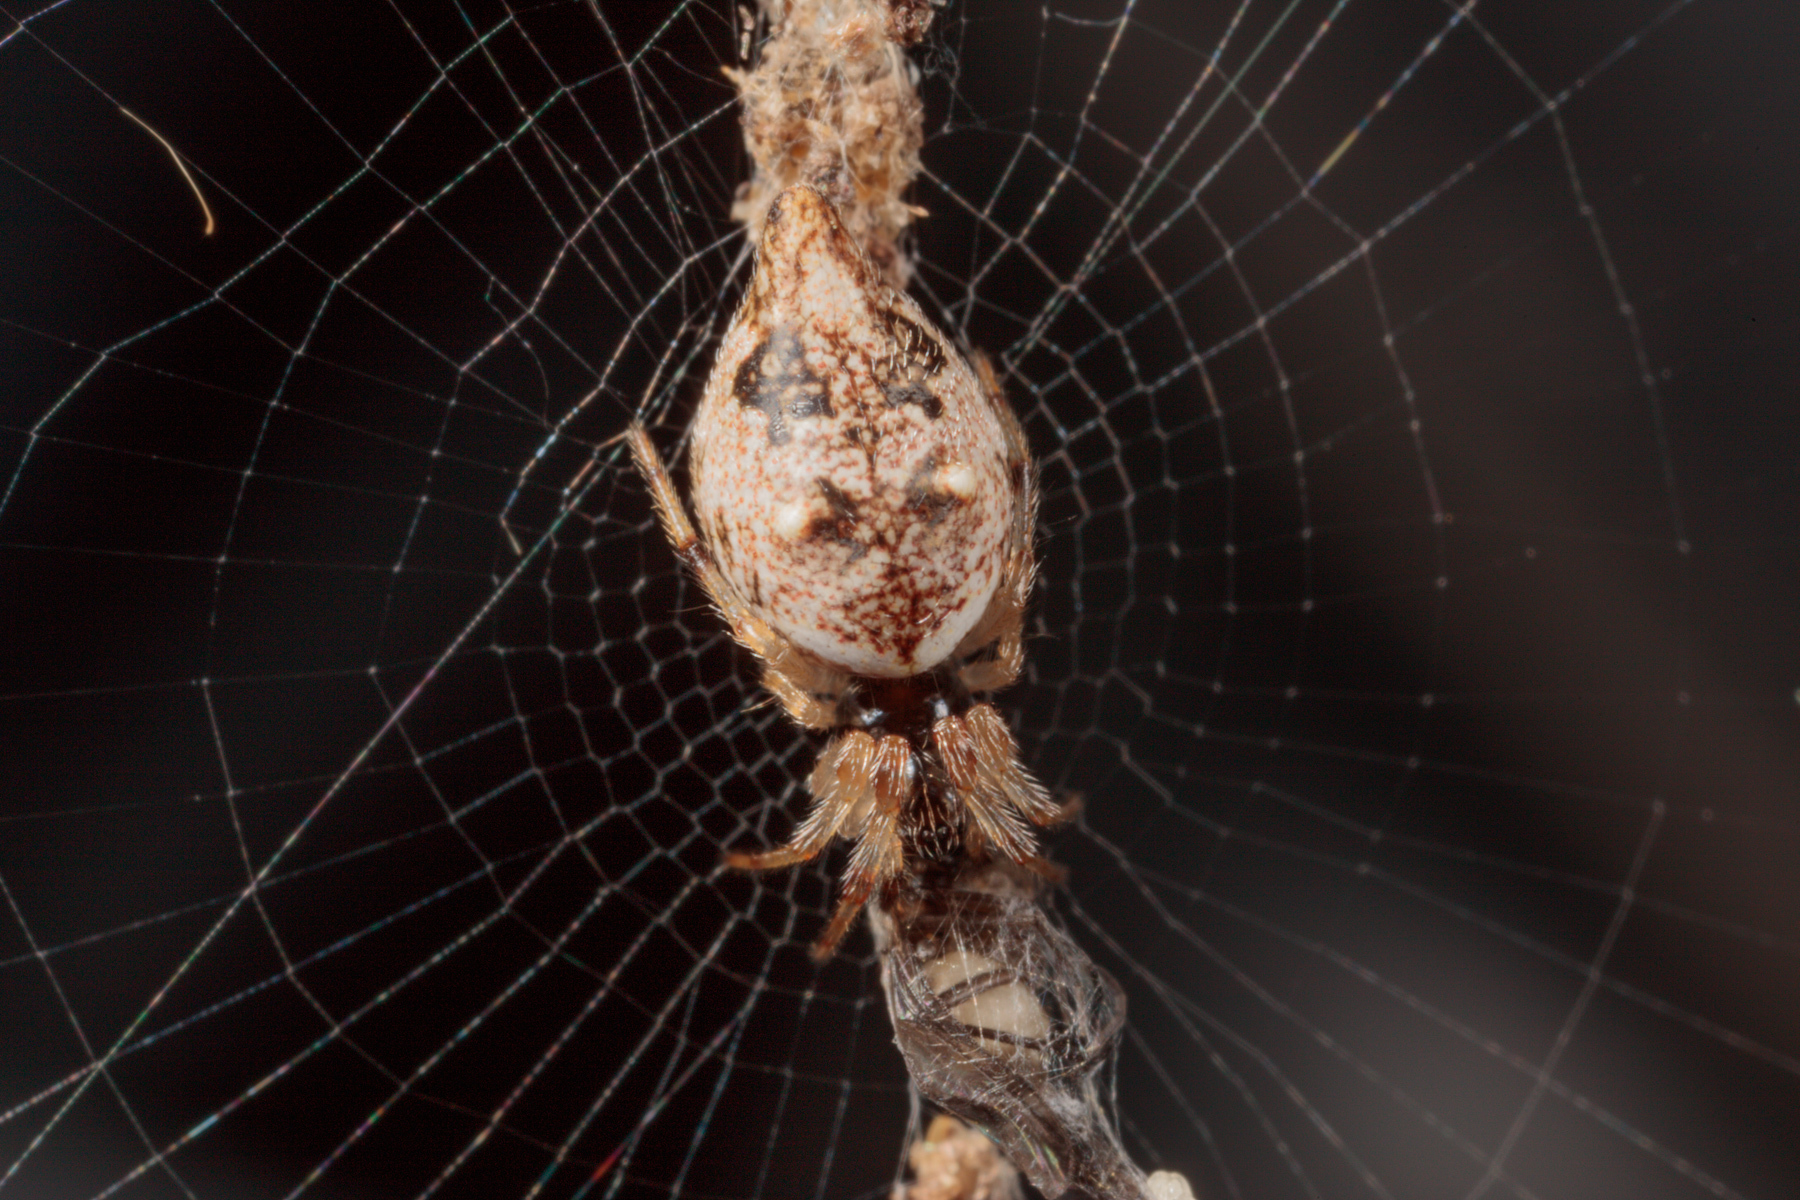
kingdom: Animalia
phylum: Arthropoda
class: Arachnida
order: Araneae
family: Araneidae
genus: Cyclosa
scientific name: Cyclosa turbinata
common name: Orb weavers
